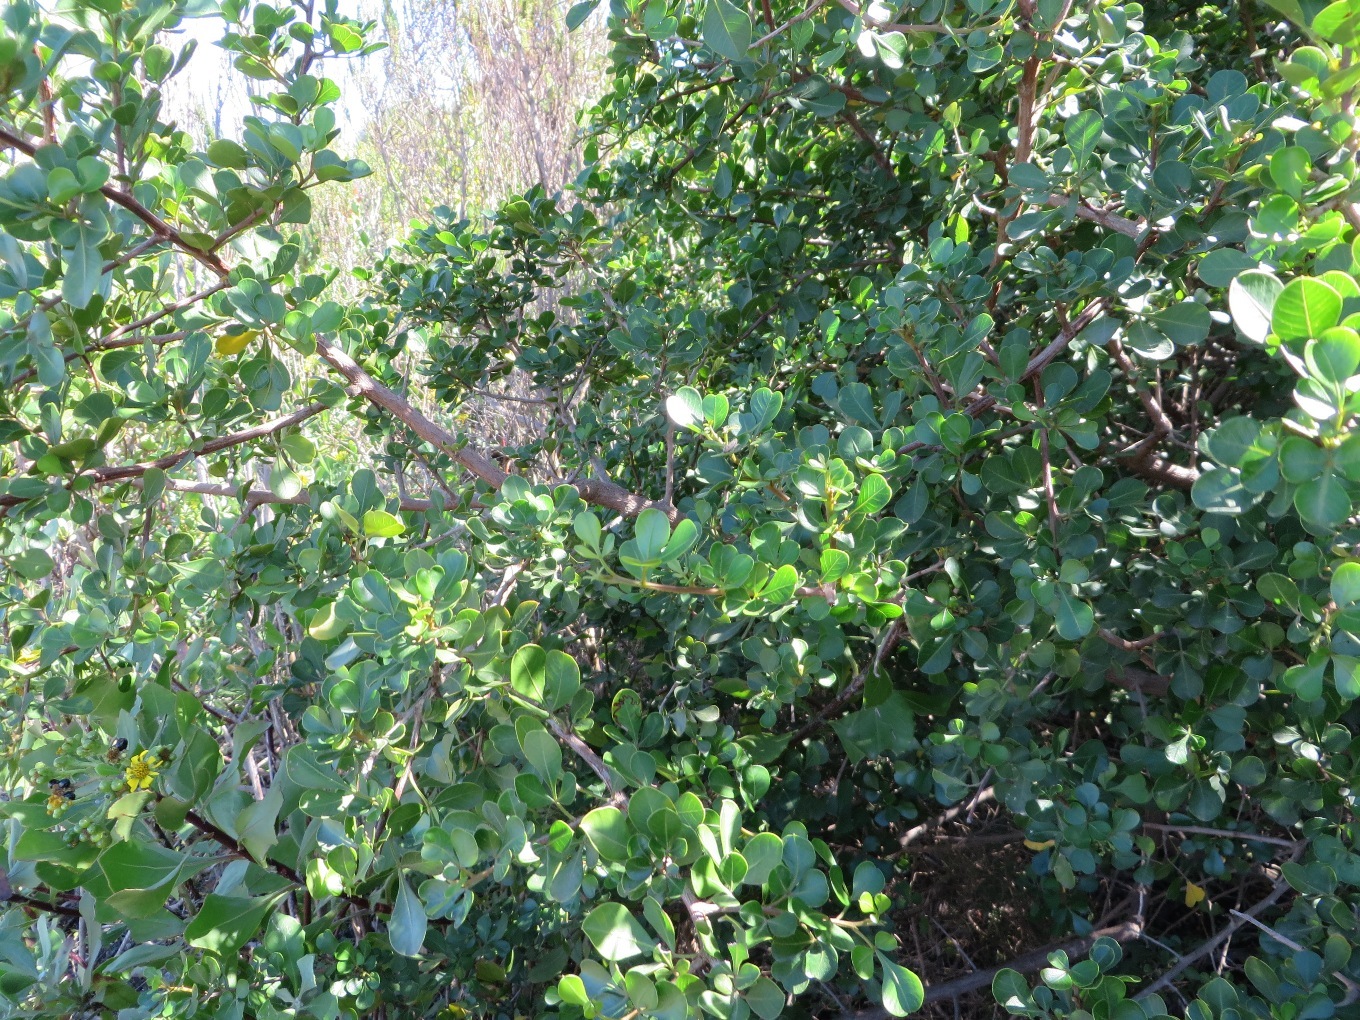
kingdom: Plantae
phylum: Tracheophyta
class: Magnoliopsida
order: Sapindales
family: Anacardiaceae
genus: Searsia
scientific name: Searsia glauca
